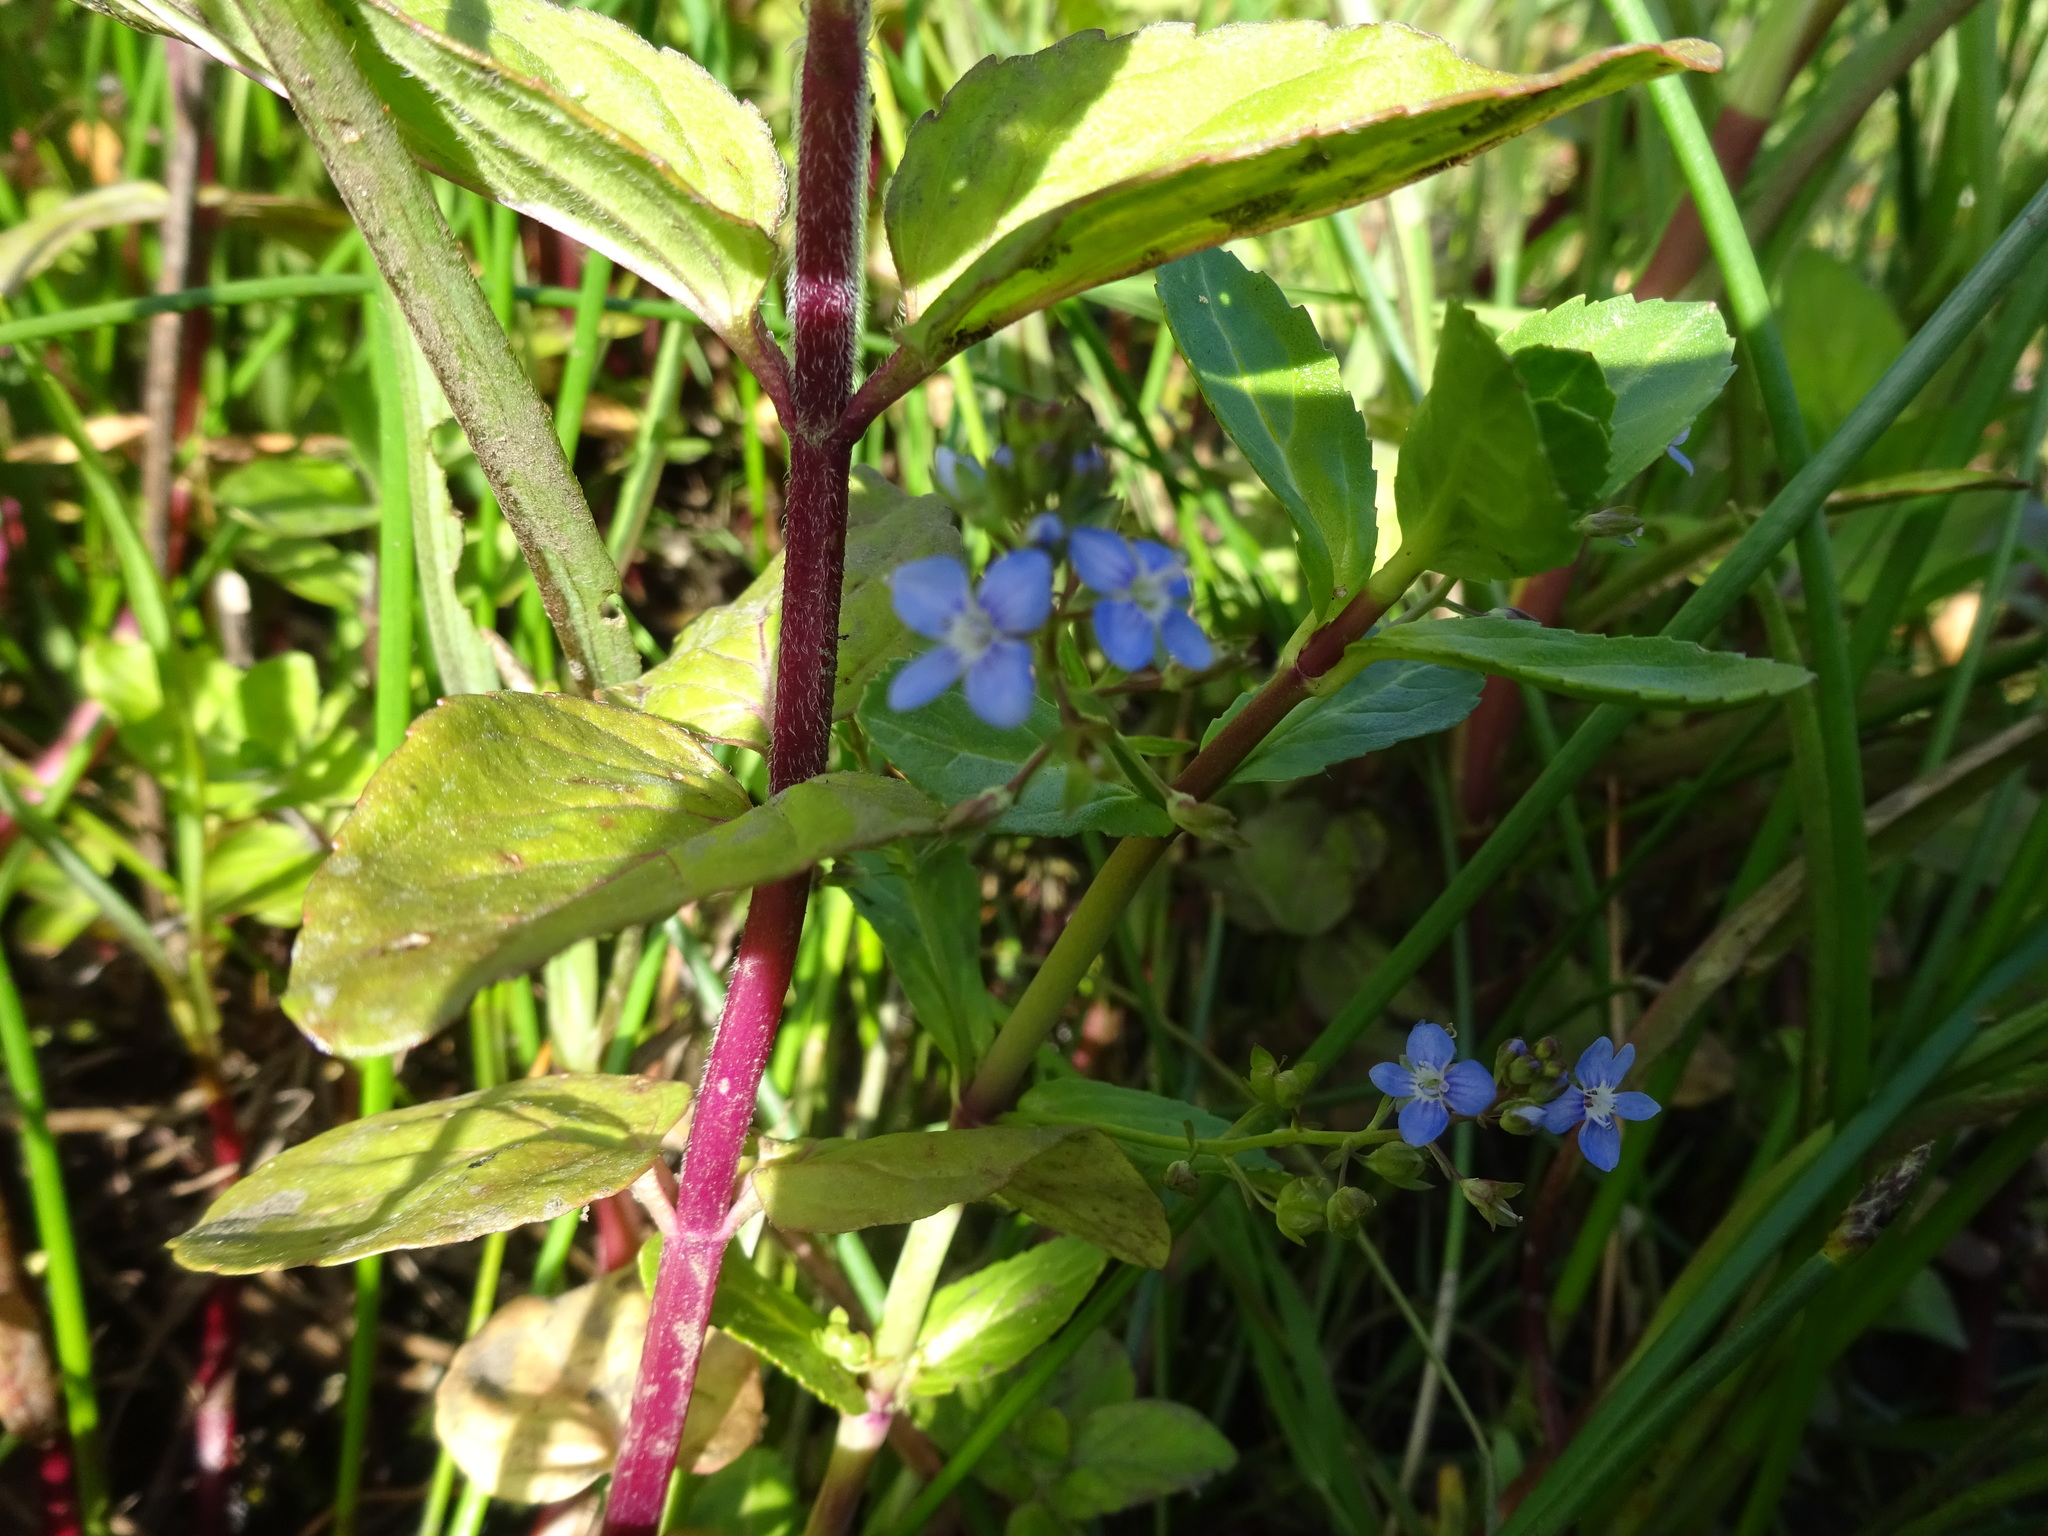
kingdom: Plantae
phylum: Tracheophyta
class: Magnoliopsida
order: Lamiales
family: Plantaginaceae
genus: Veronica
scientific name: Veronica beccabunga
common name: Brooklime
